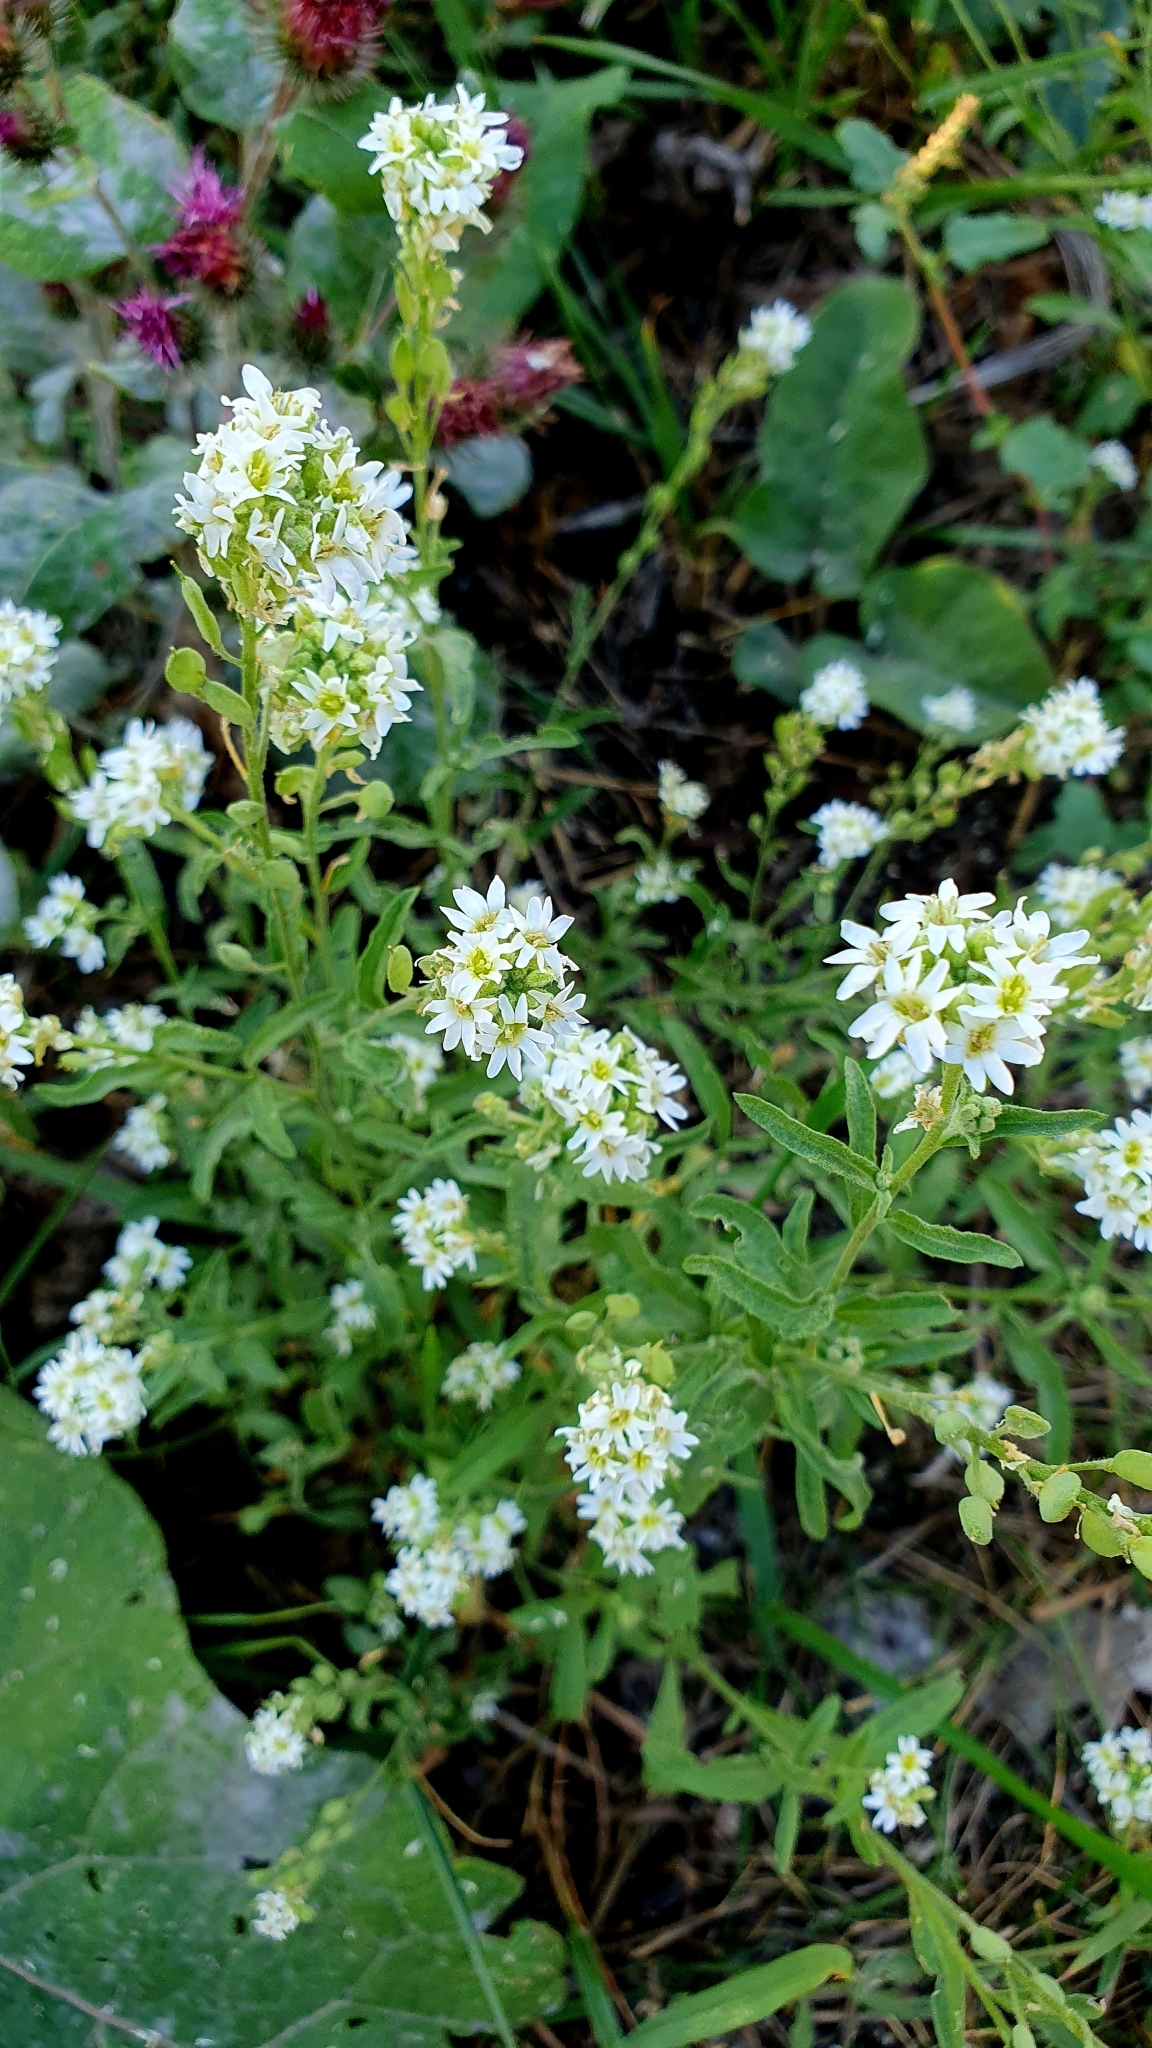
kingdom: Plantae
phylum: Tracheophyta
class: Magnoliopsida
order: Brassicales
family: Brassicaceae
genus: Berteroa
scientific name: Berteroa incana
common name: Hoary alison
